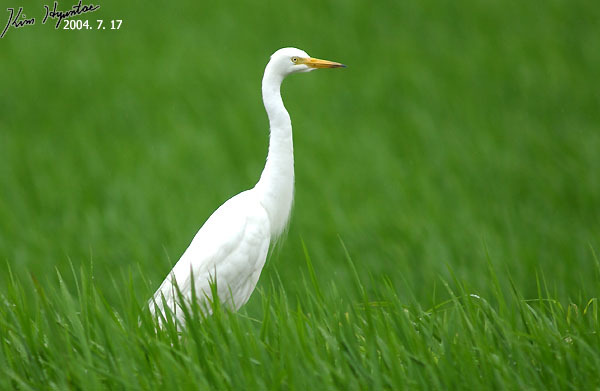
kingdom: Animalia
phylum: Chordata
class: Aves
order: Pelecaniformes
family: Ardeidae
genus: Egretta
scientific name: Egretta intermedia
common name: Intermediate egret
